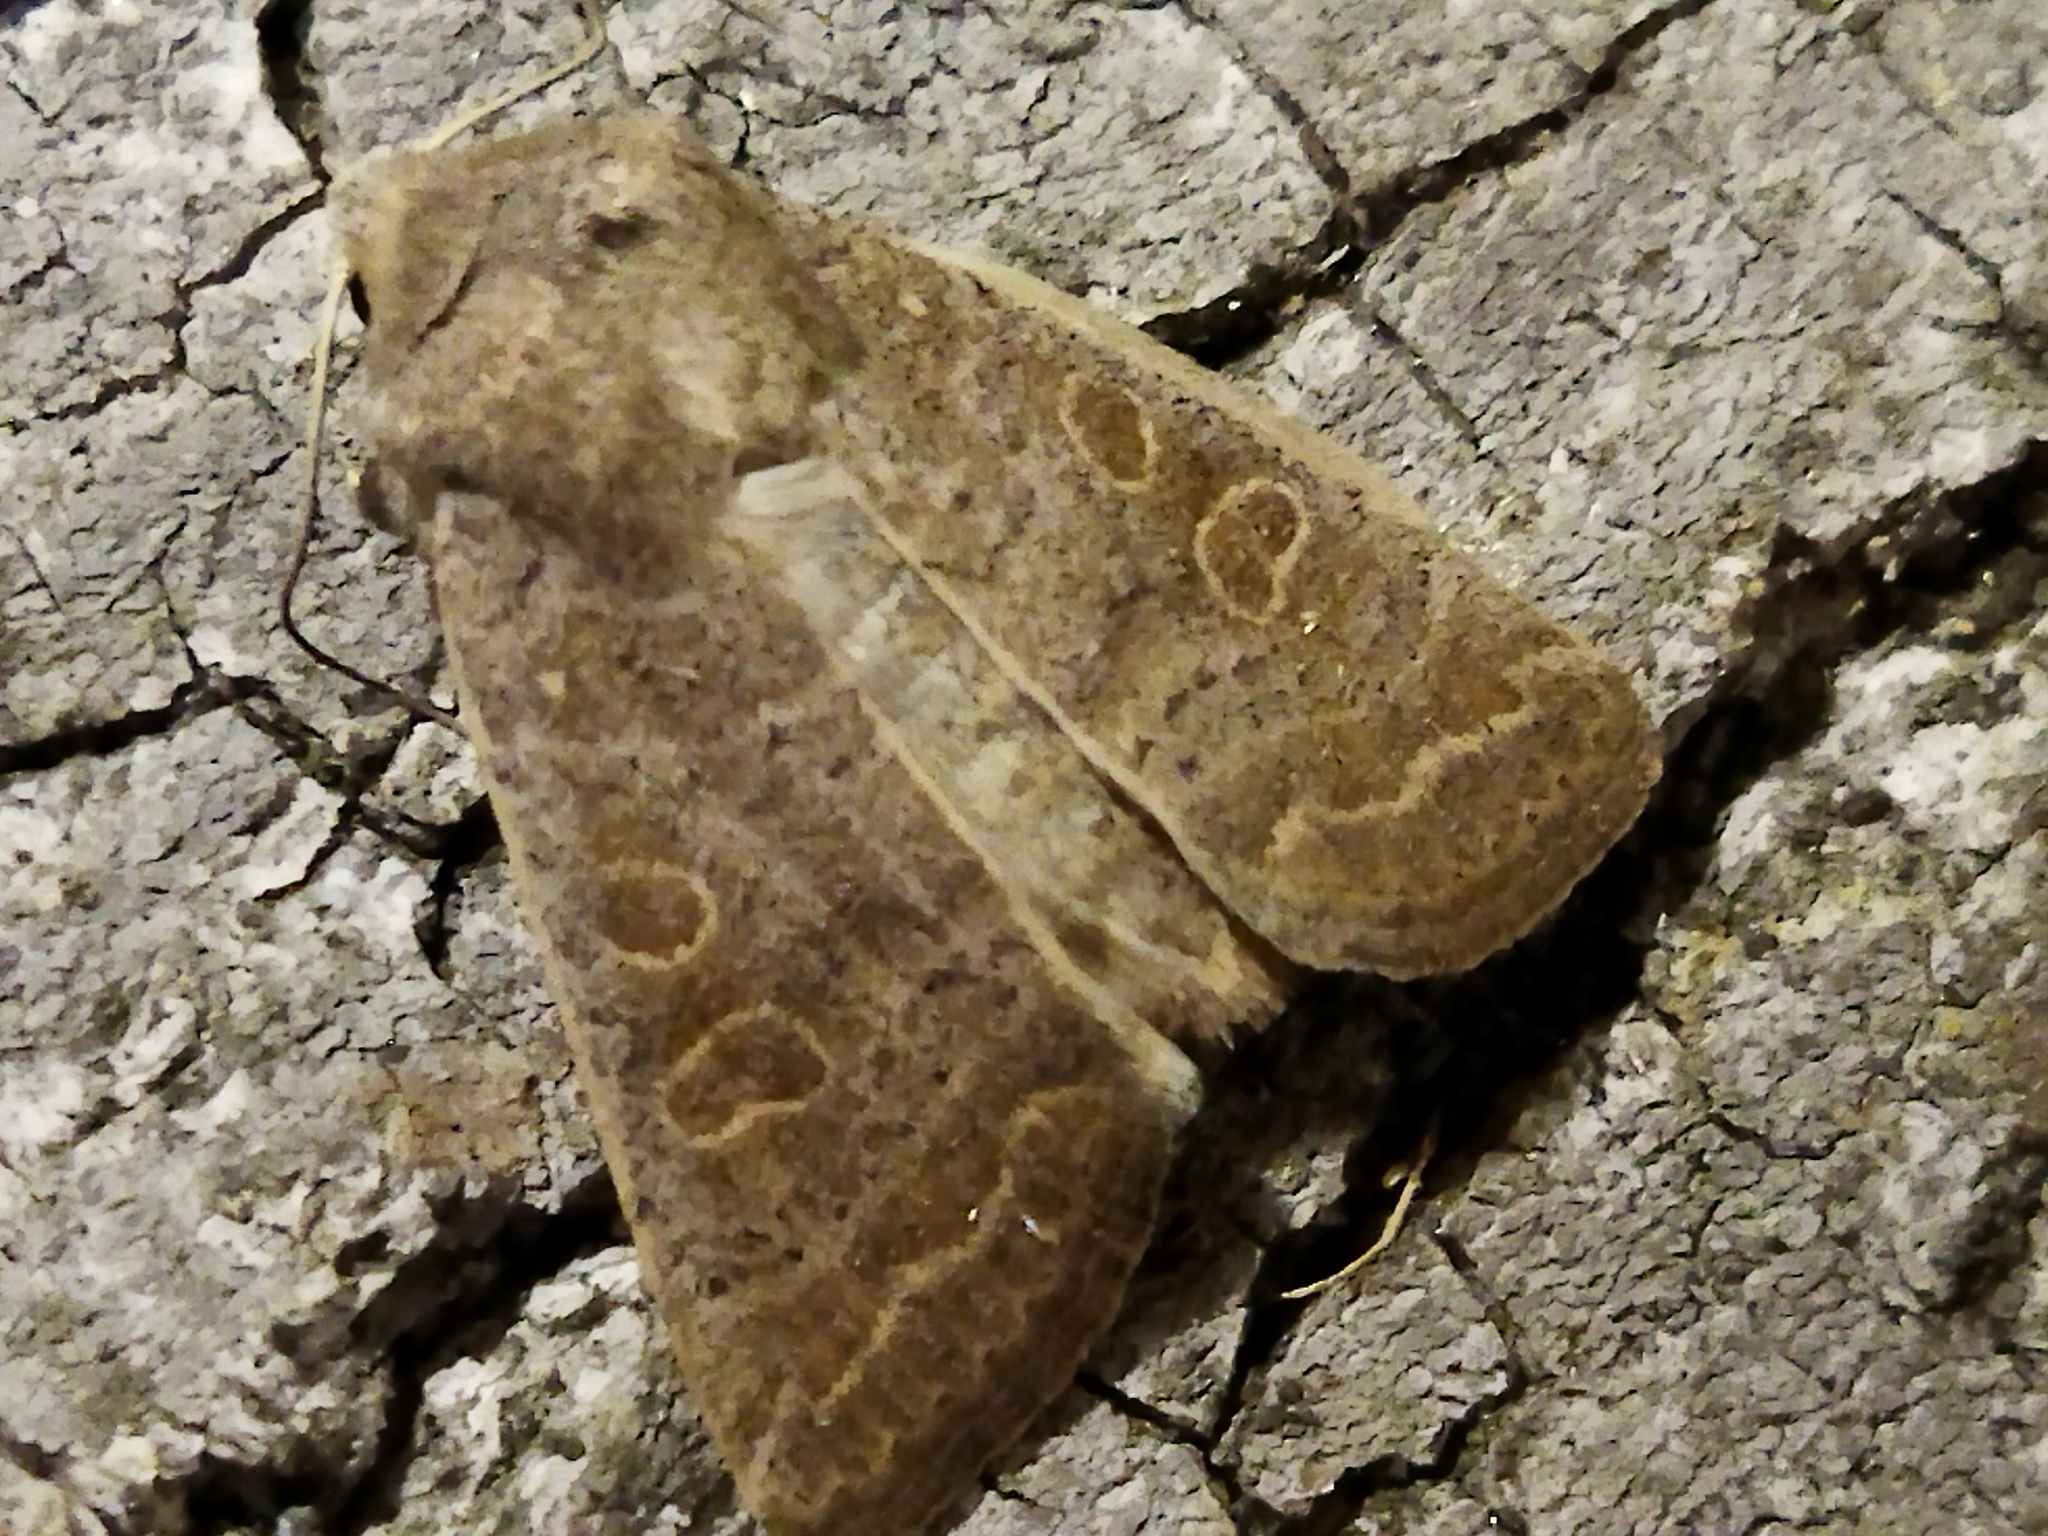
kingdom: Animalia
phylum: Arthropoda
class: Insecta
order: Lepidoptera
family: Noctuidae
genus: Hoplodrina
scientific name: Hoplodrina ambigua
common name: Vine's rustic
